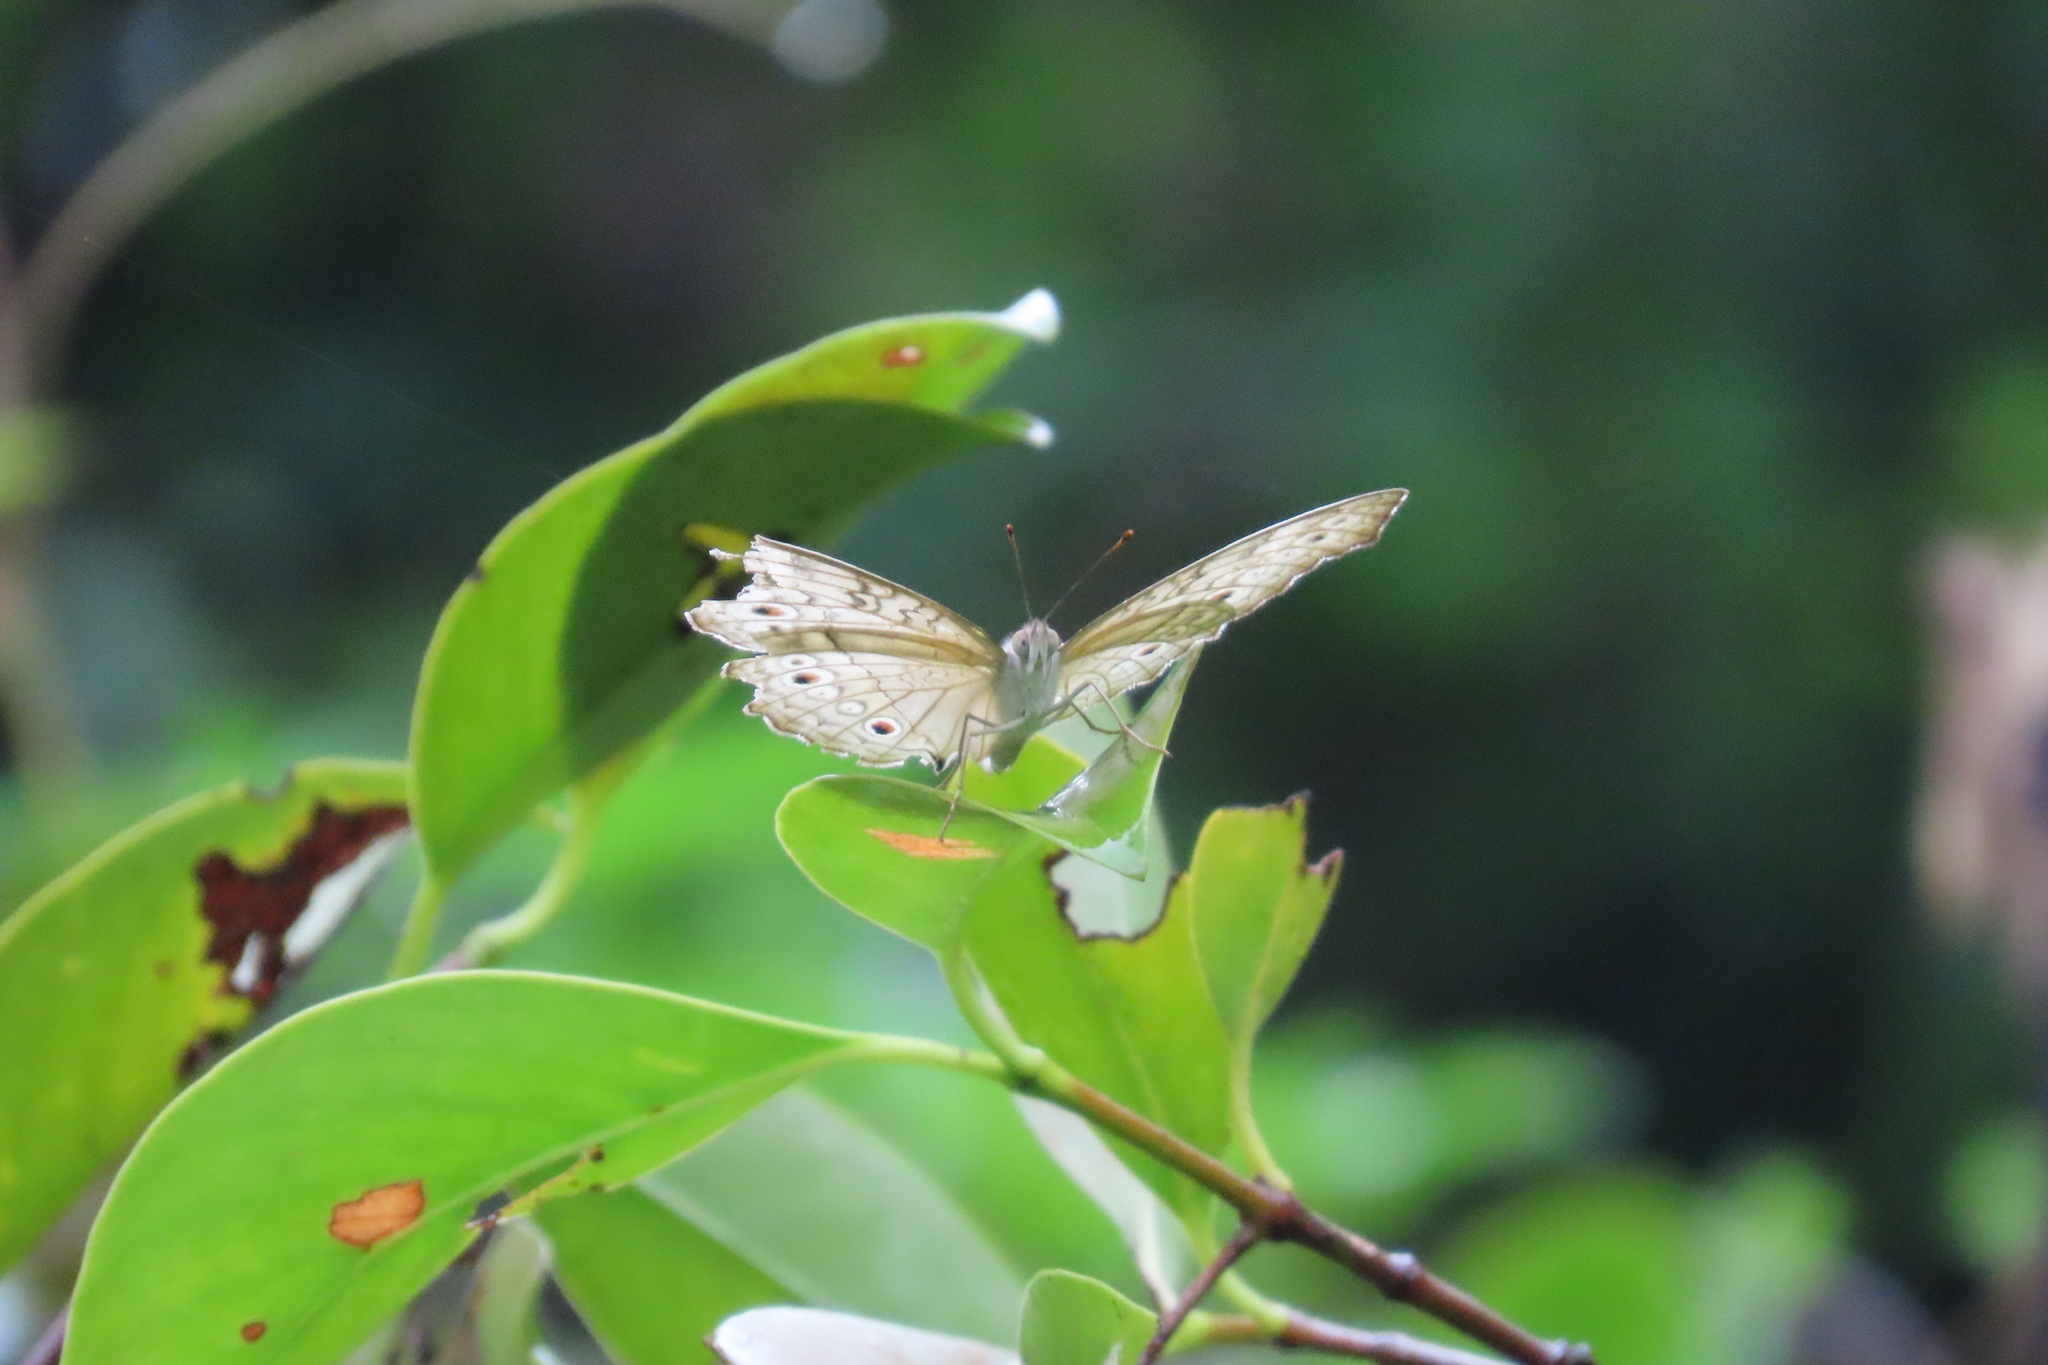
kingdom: Animalia
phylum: Arthropoda
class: Insecta
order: Lepidoptera
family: Nymphalidae
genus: Junonia
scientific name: Junonia atlites
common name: Grey pansy
